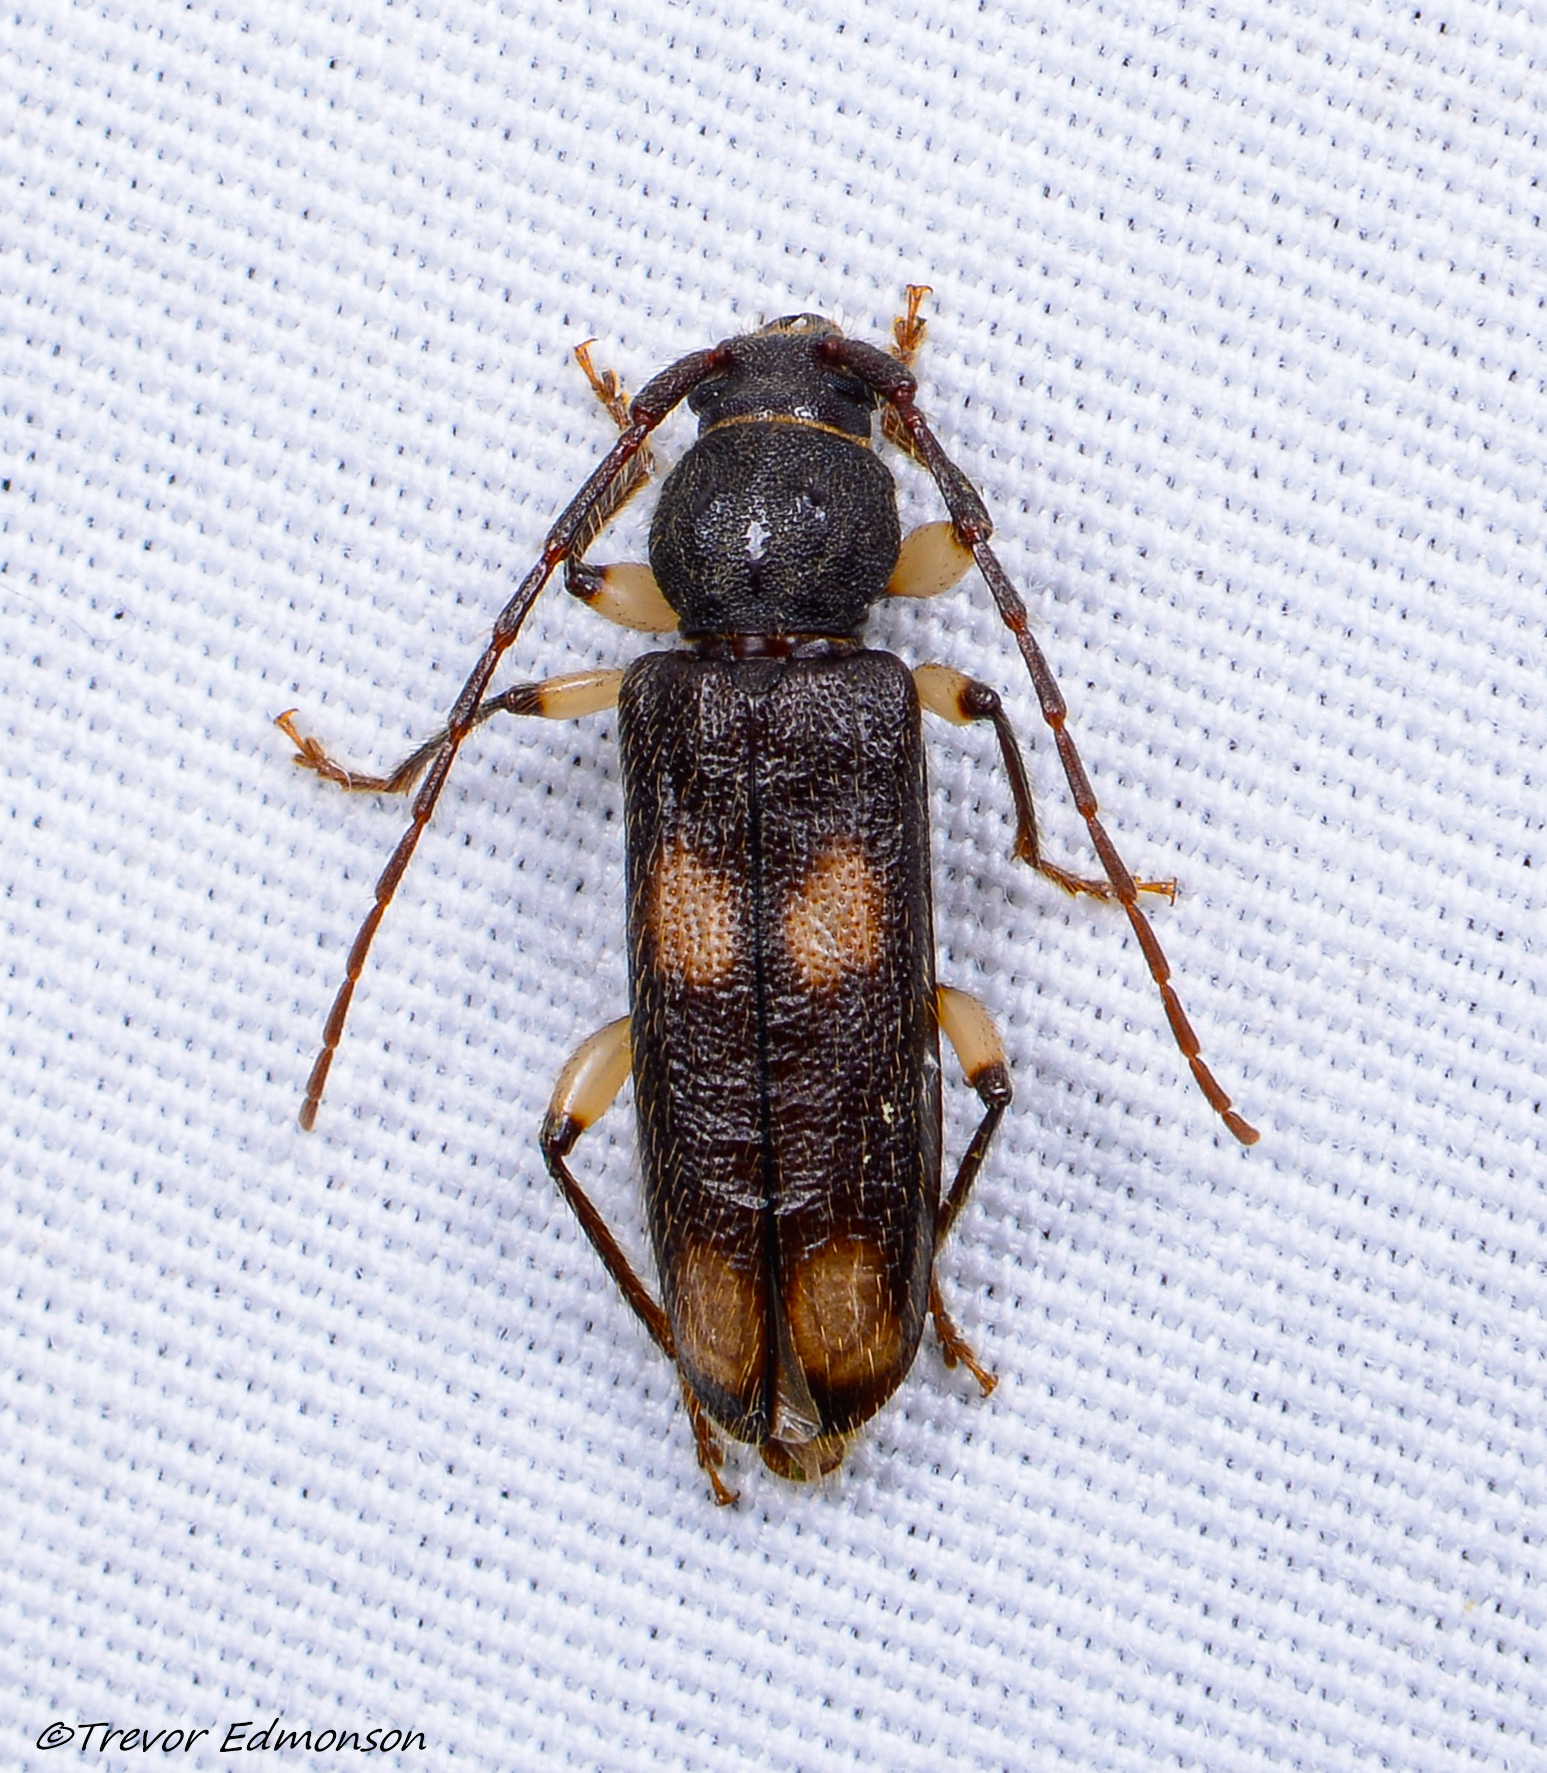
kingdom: Animalia
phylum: Arthropoda
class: Insecta
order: Coleoptera
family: Cerambycidae
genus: Tylonotus
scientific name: Tylonotus bimaculatus
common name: Ash and privet borer
